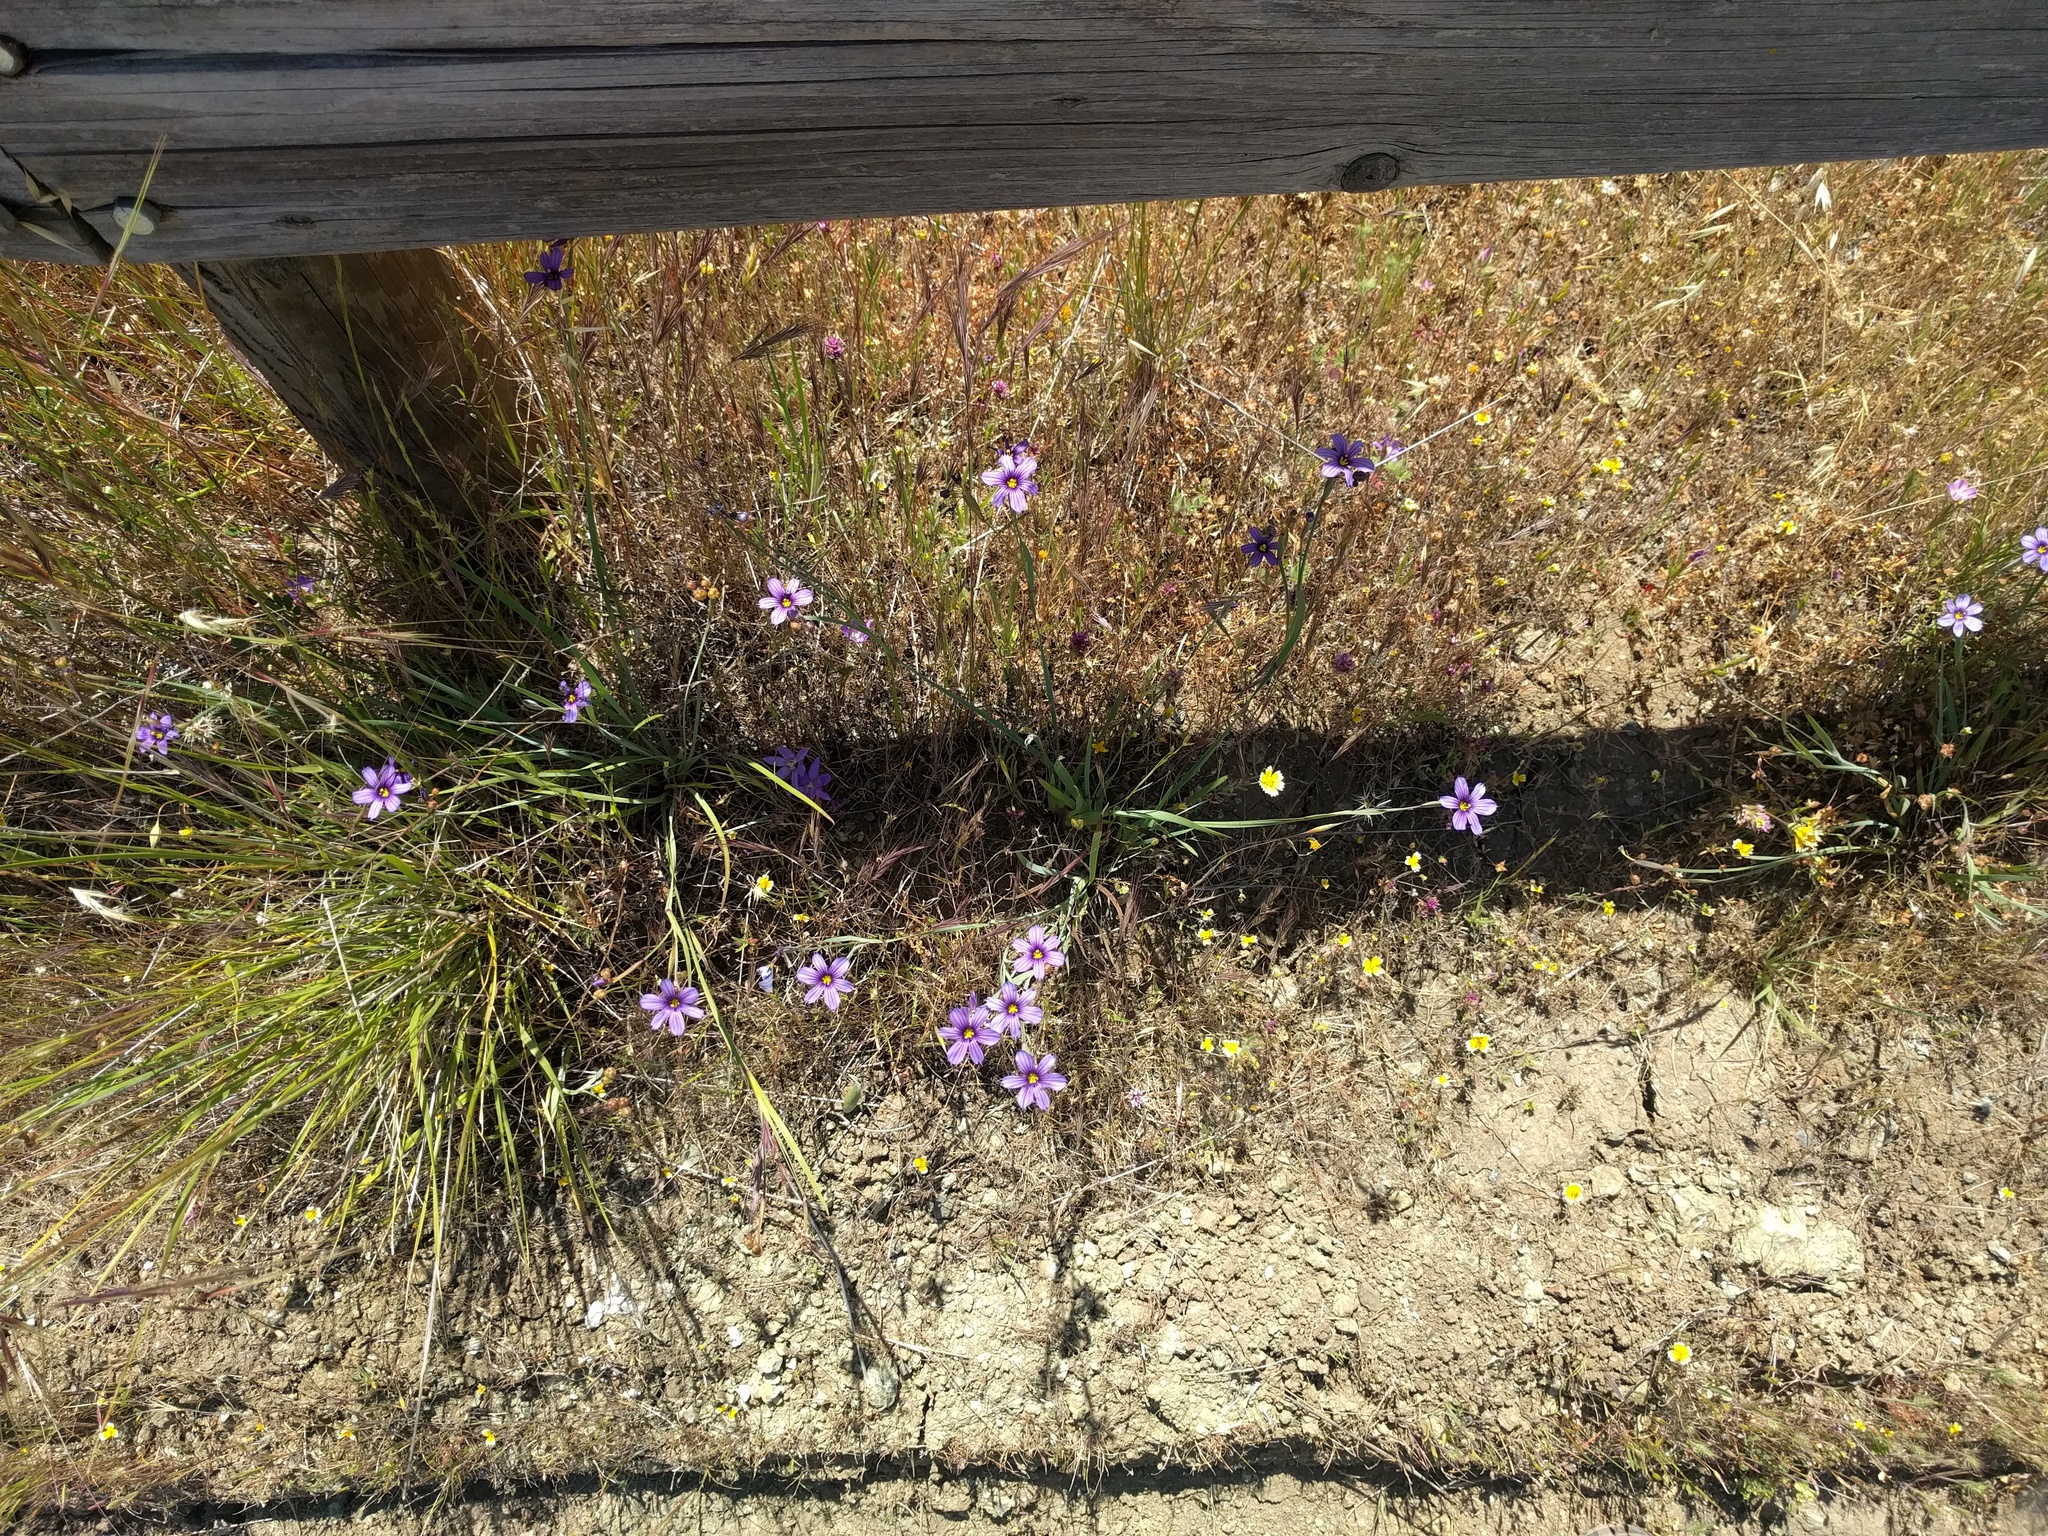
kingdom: Plantae
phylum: Tracheophyta
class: Liliopsida
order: Asparagales
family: Iridaceae
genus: Sisyrinchium
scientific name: Sisyrinchium bellum
